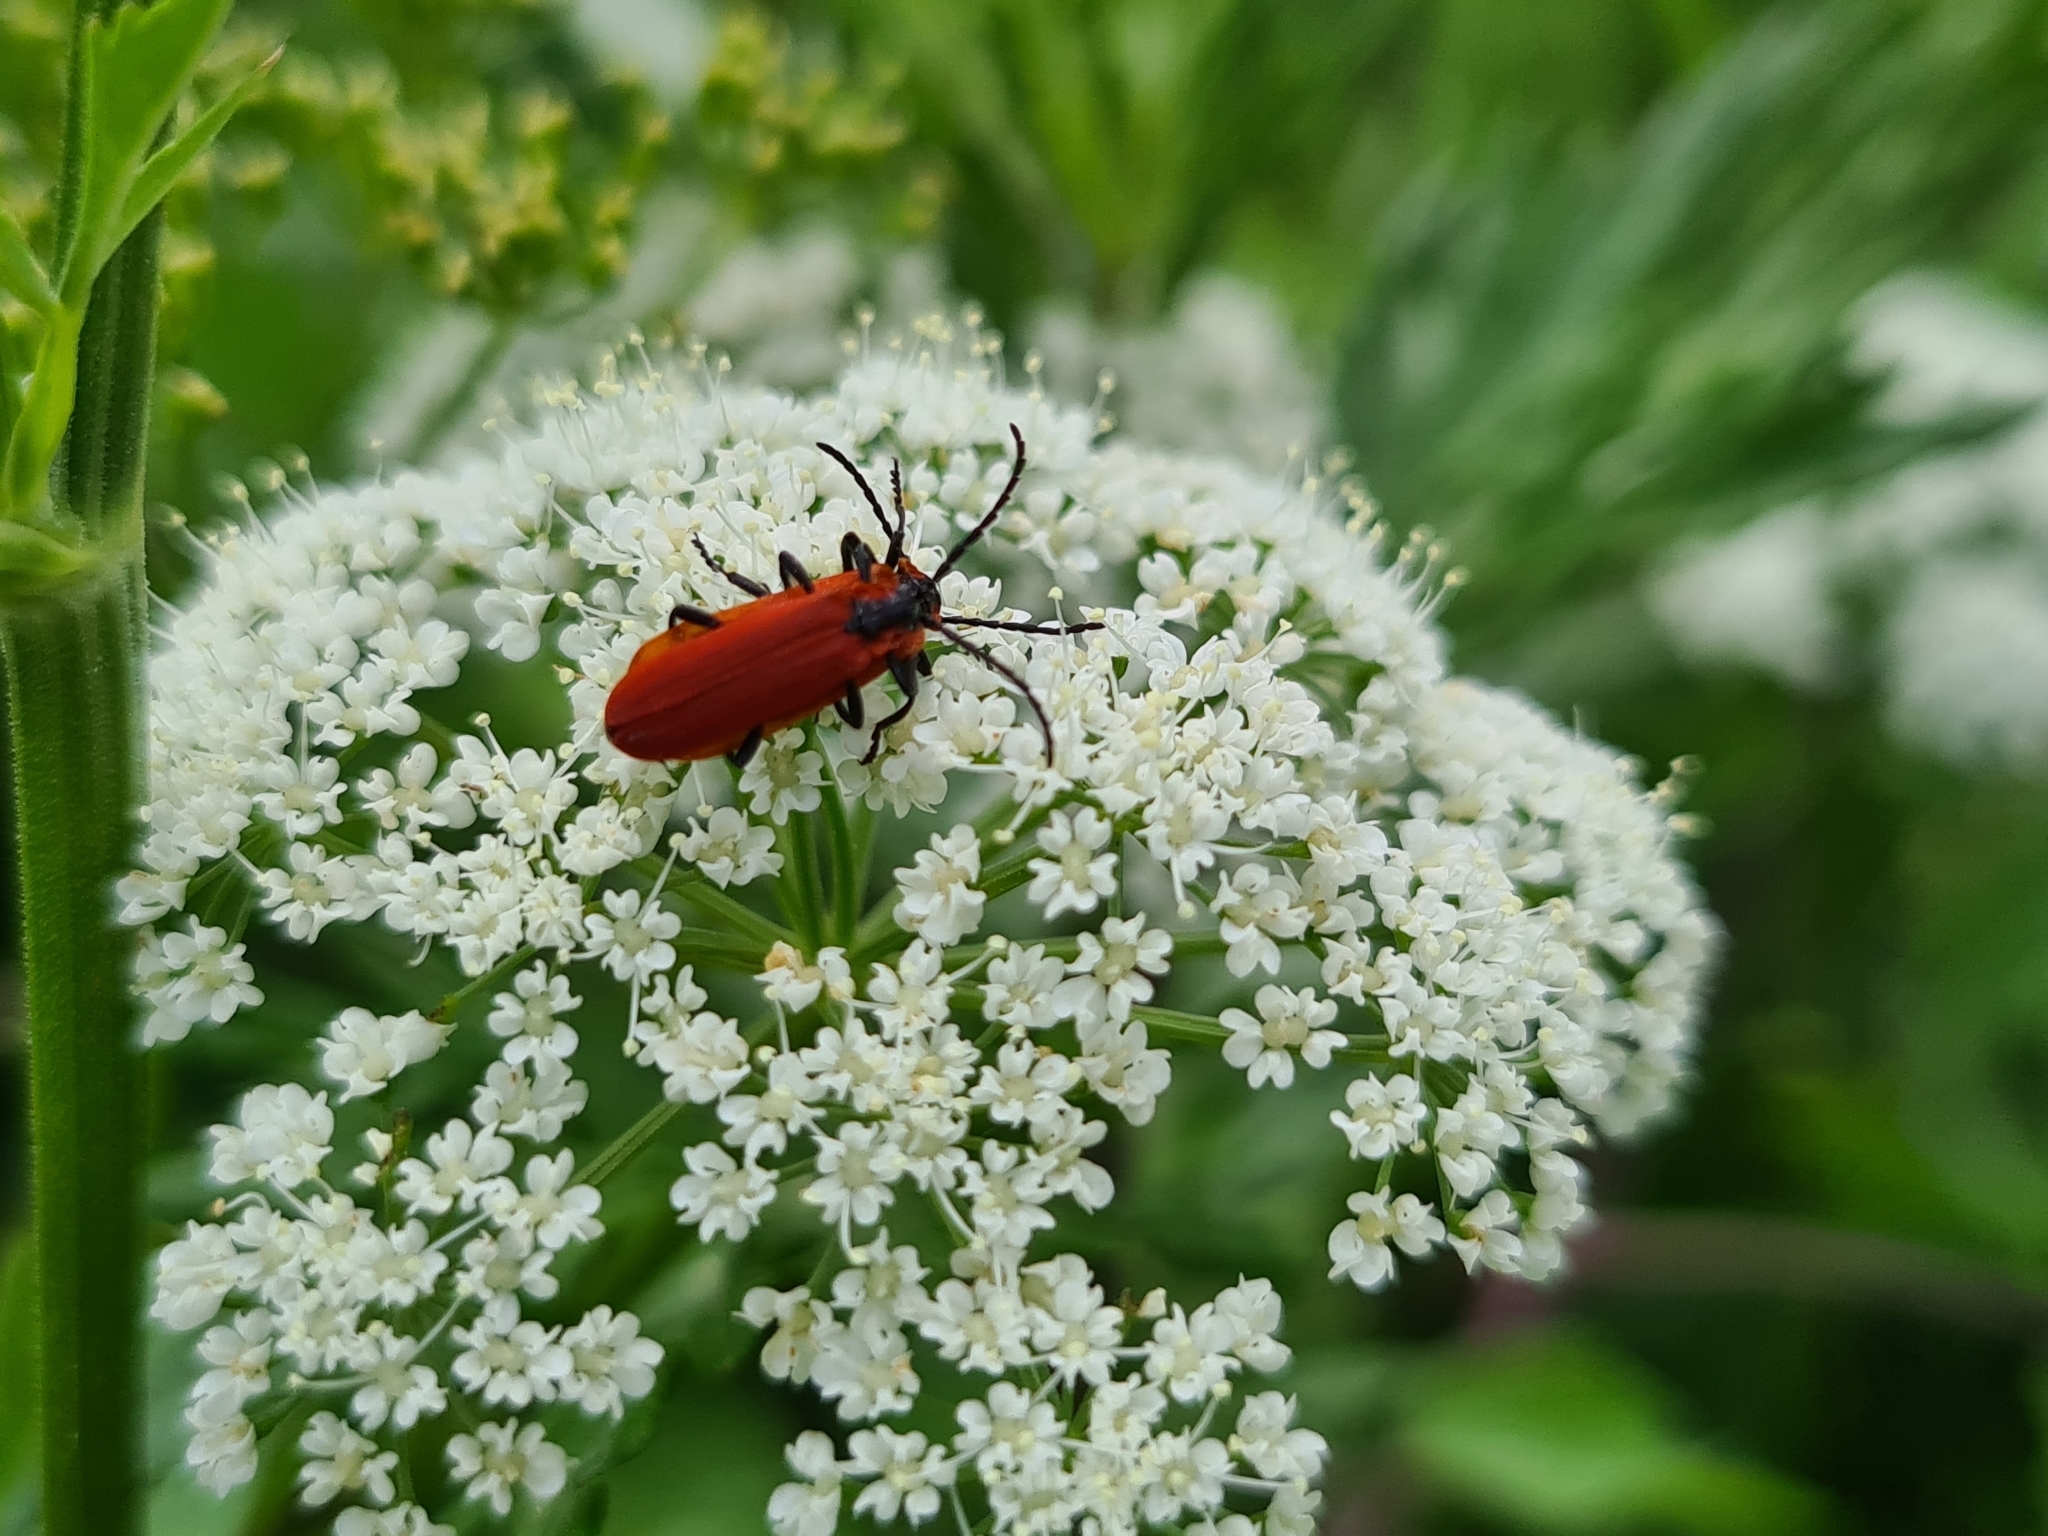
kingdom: Animalia
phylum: Arthropoda
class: Insecta
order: Coleoptera
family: Lycidae
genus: Lygistopterus
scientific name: Lygistopterus sanguineus
